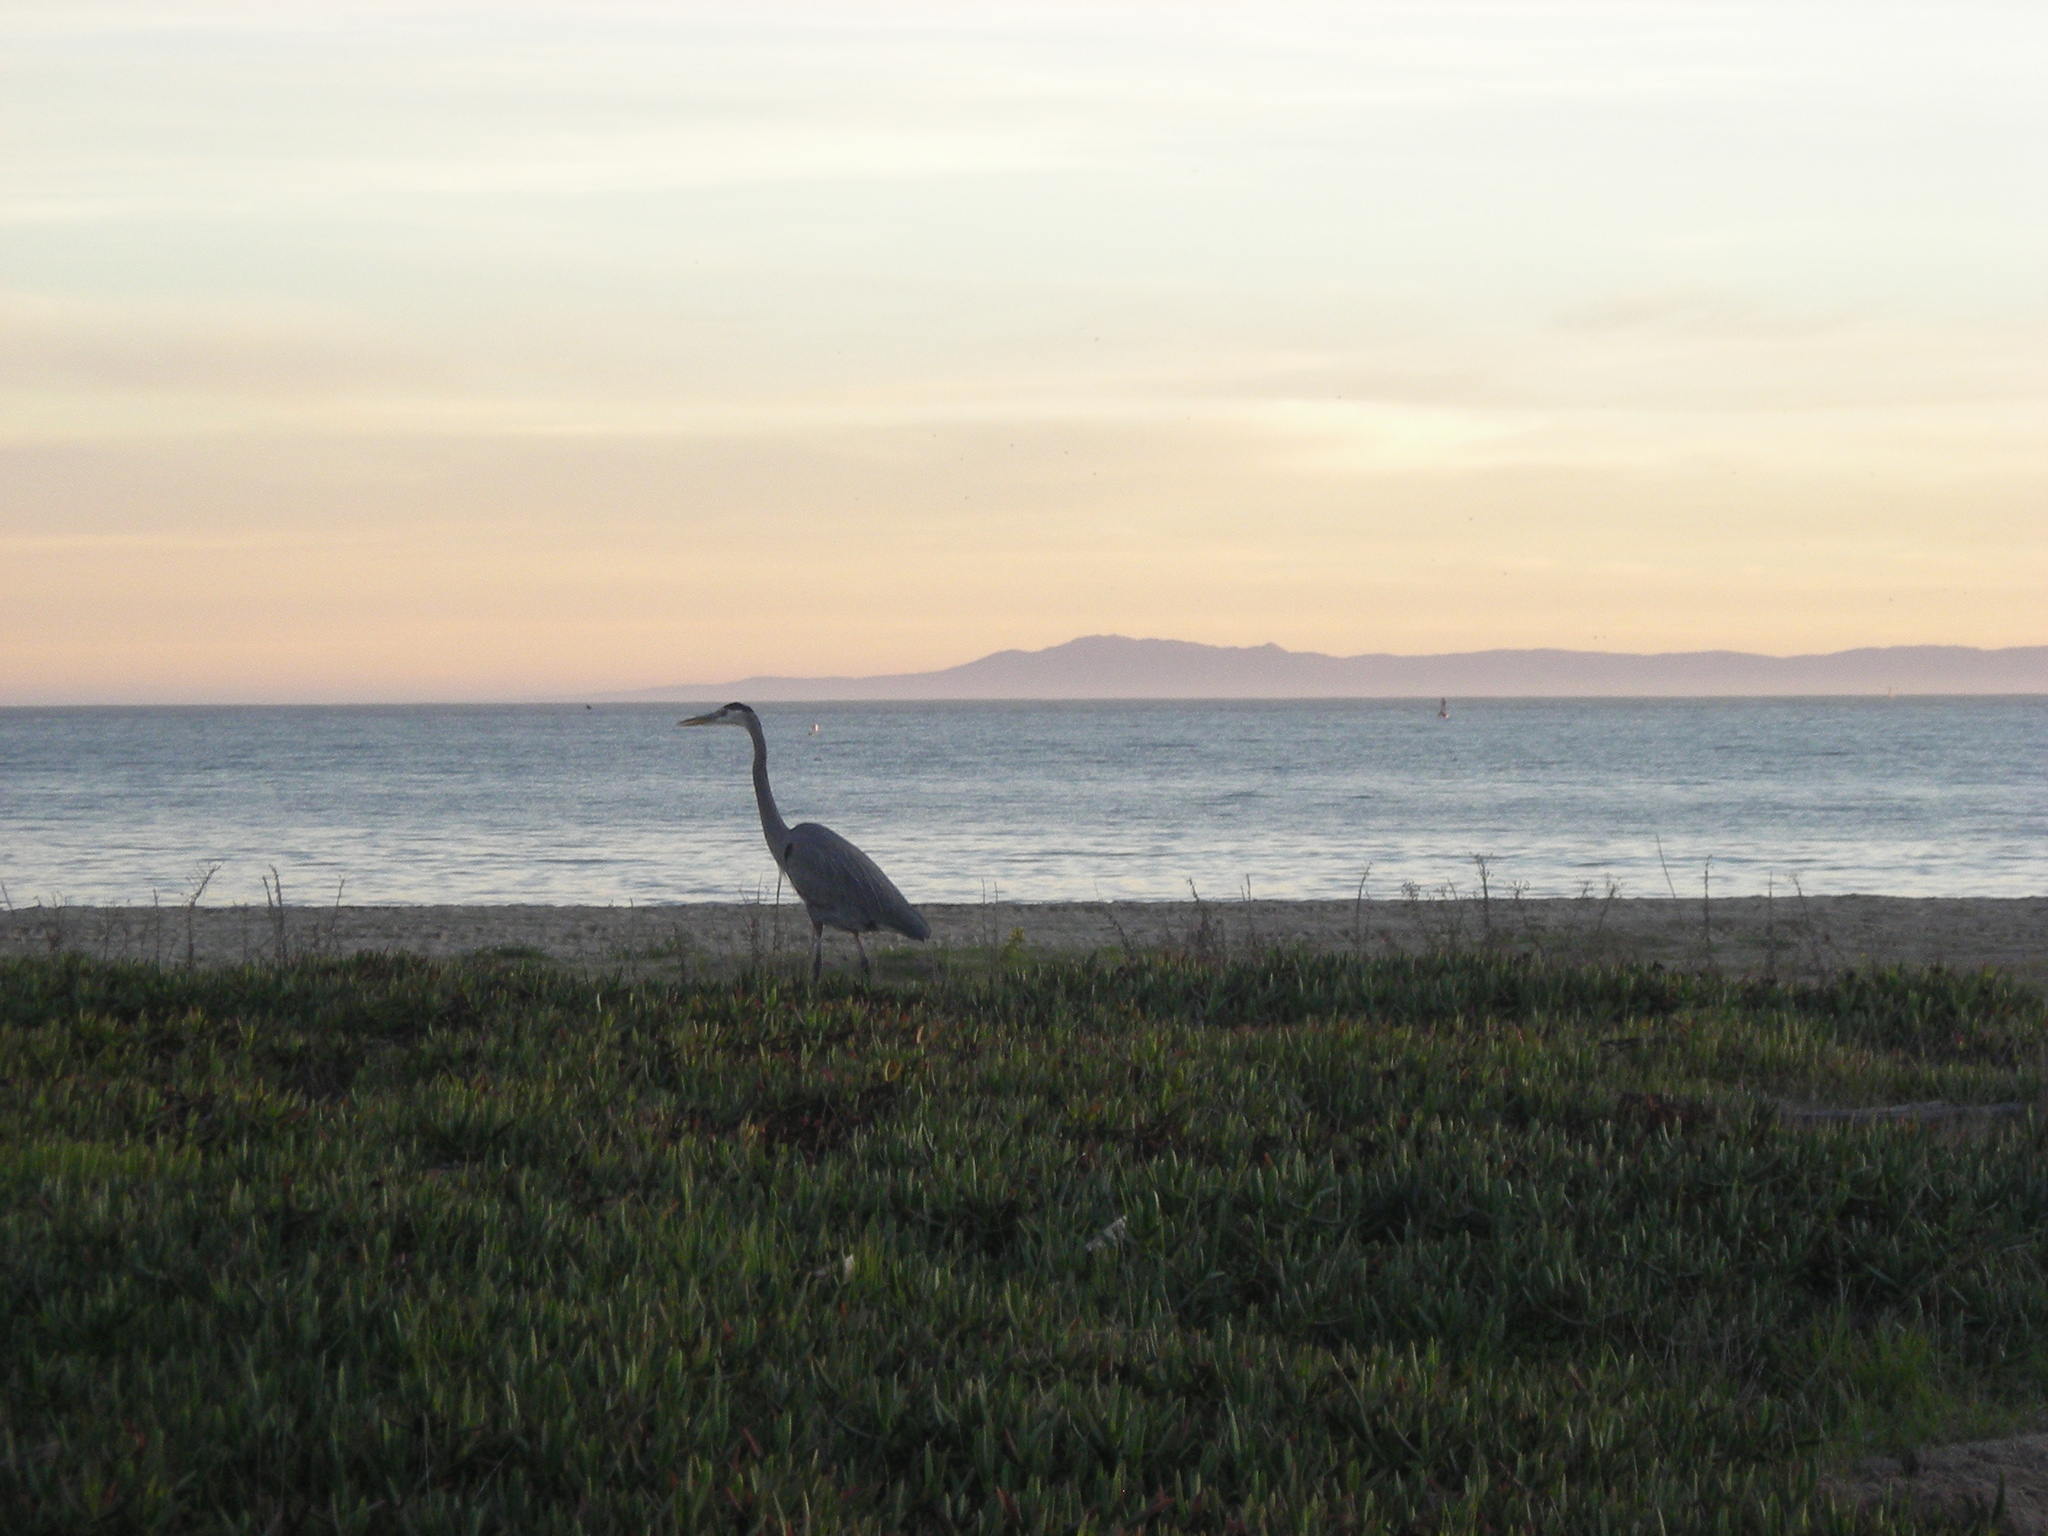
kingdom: Animalia
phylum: Chordata
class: Aves
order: Pelecaniformes
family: Ardeidae
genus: Ardea
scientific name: Ardea herodias
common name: Great blue heron
